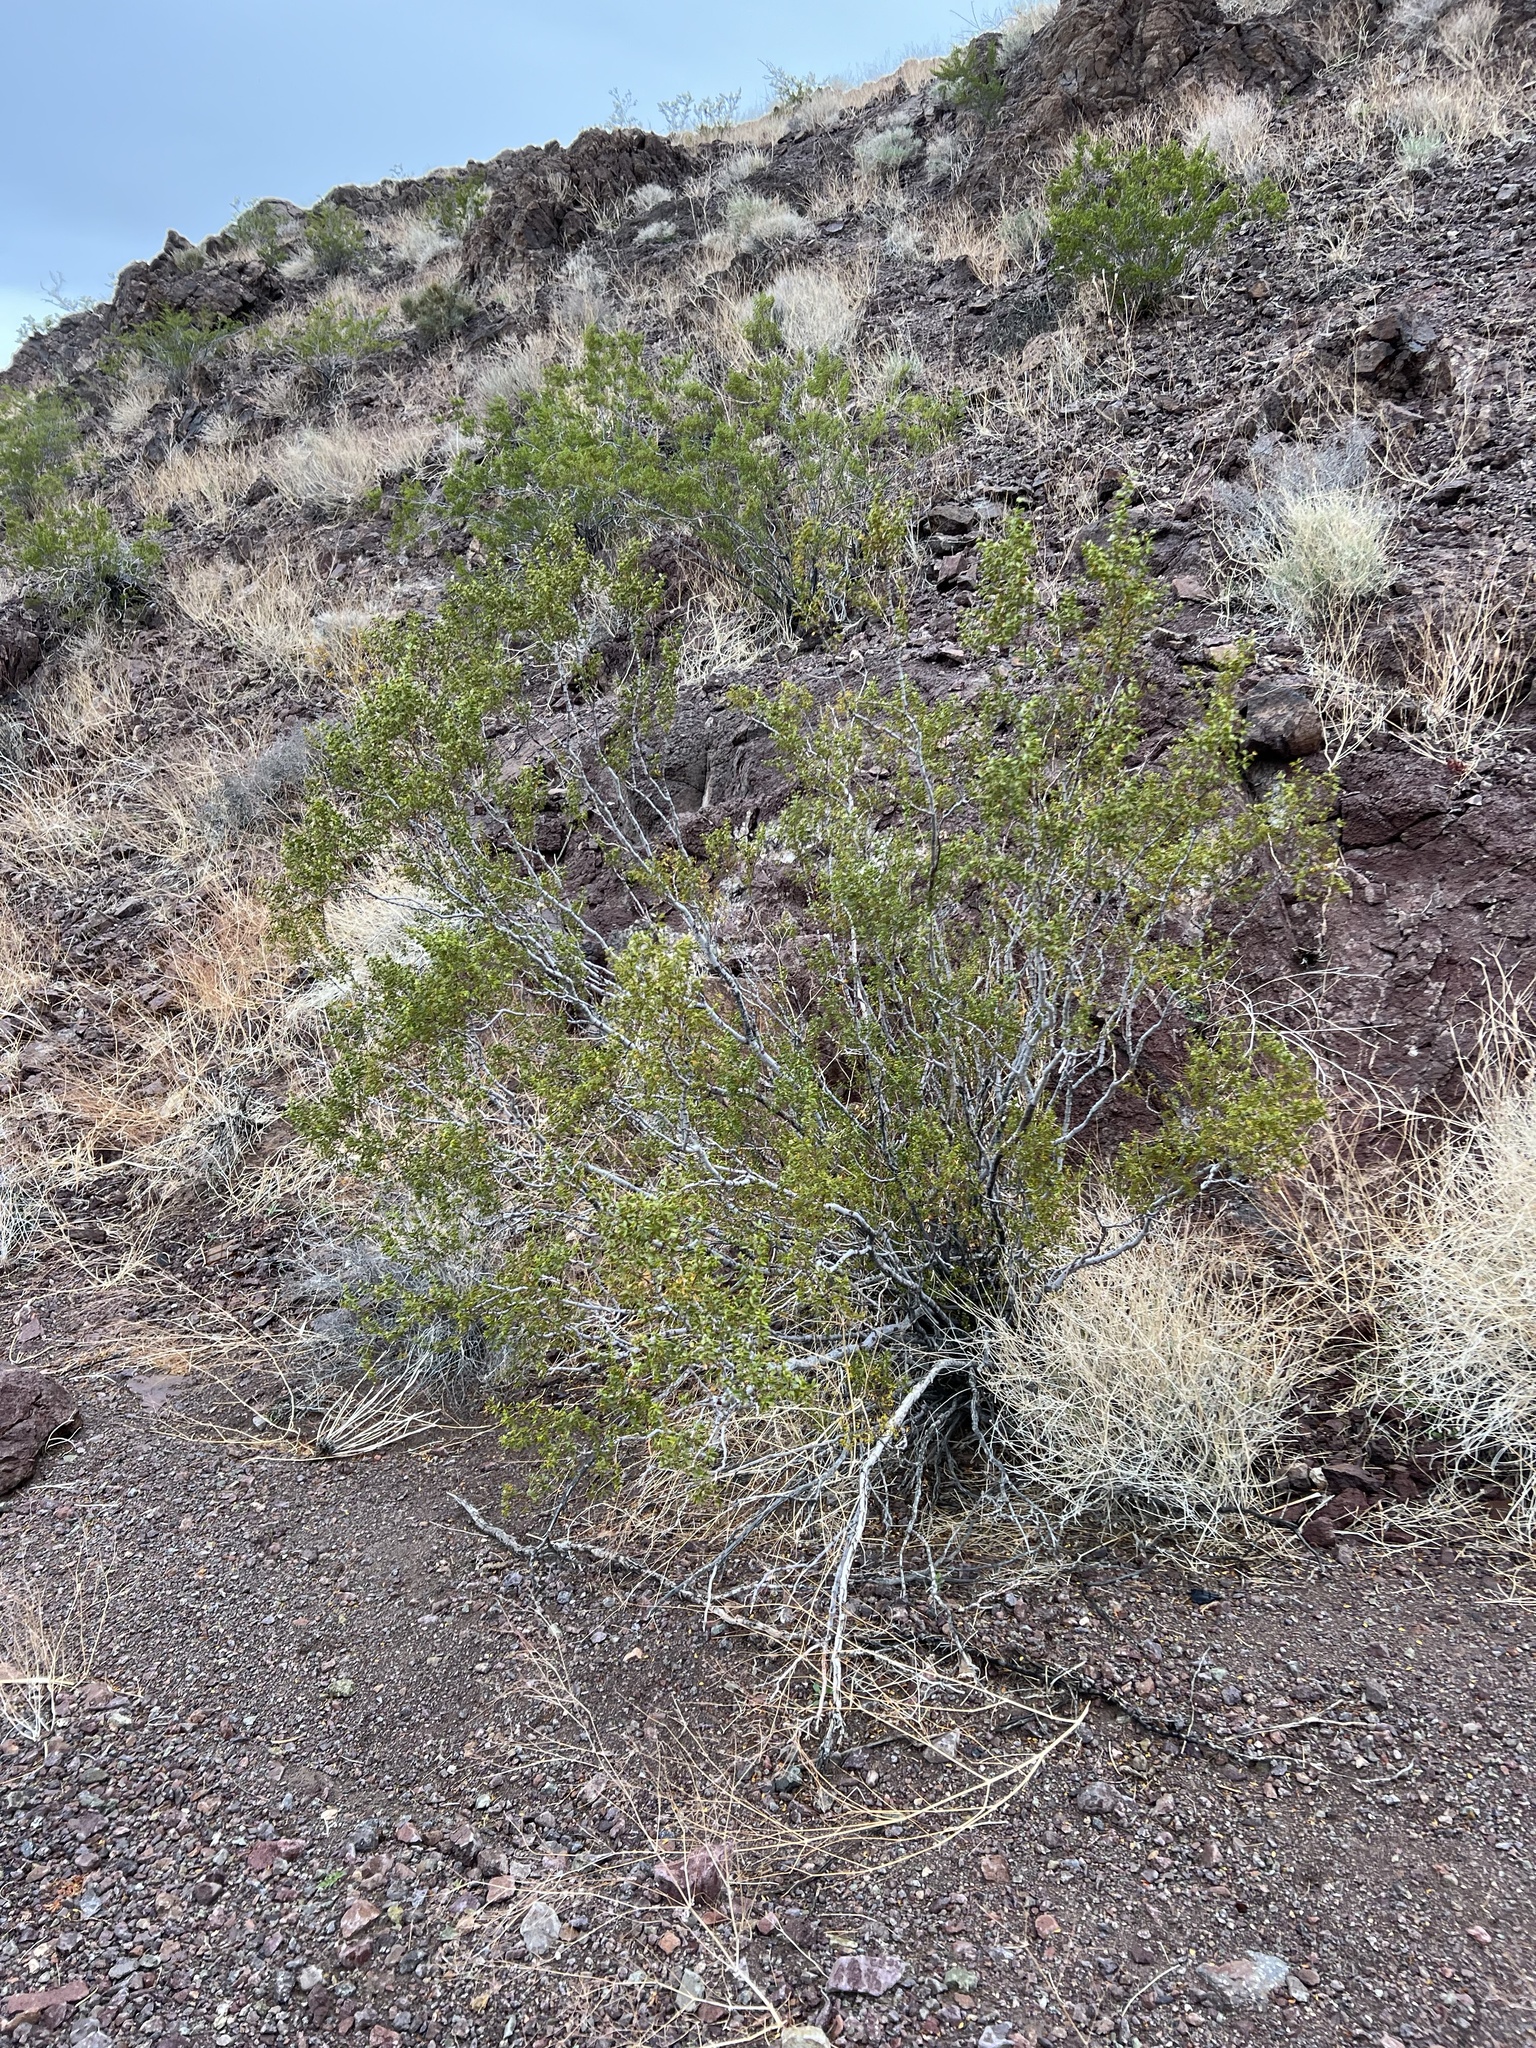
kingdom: Plantae
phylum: Tracheophyta
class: Magnoliopsida
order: Zygophyllales
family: Zygophyllaceae
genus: Larrea
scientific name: Larrea tridentata
